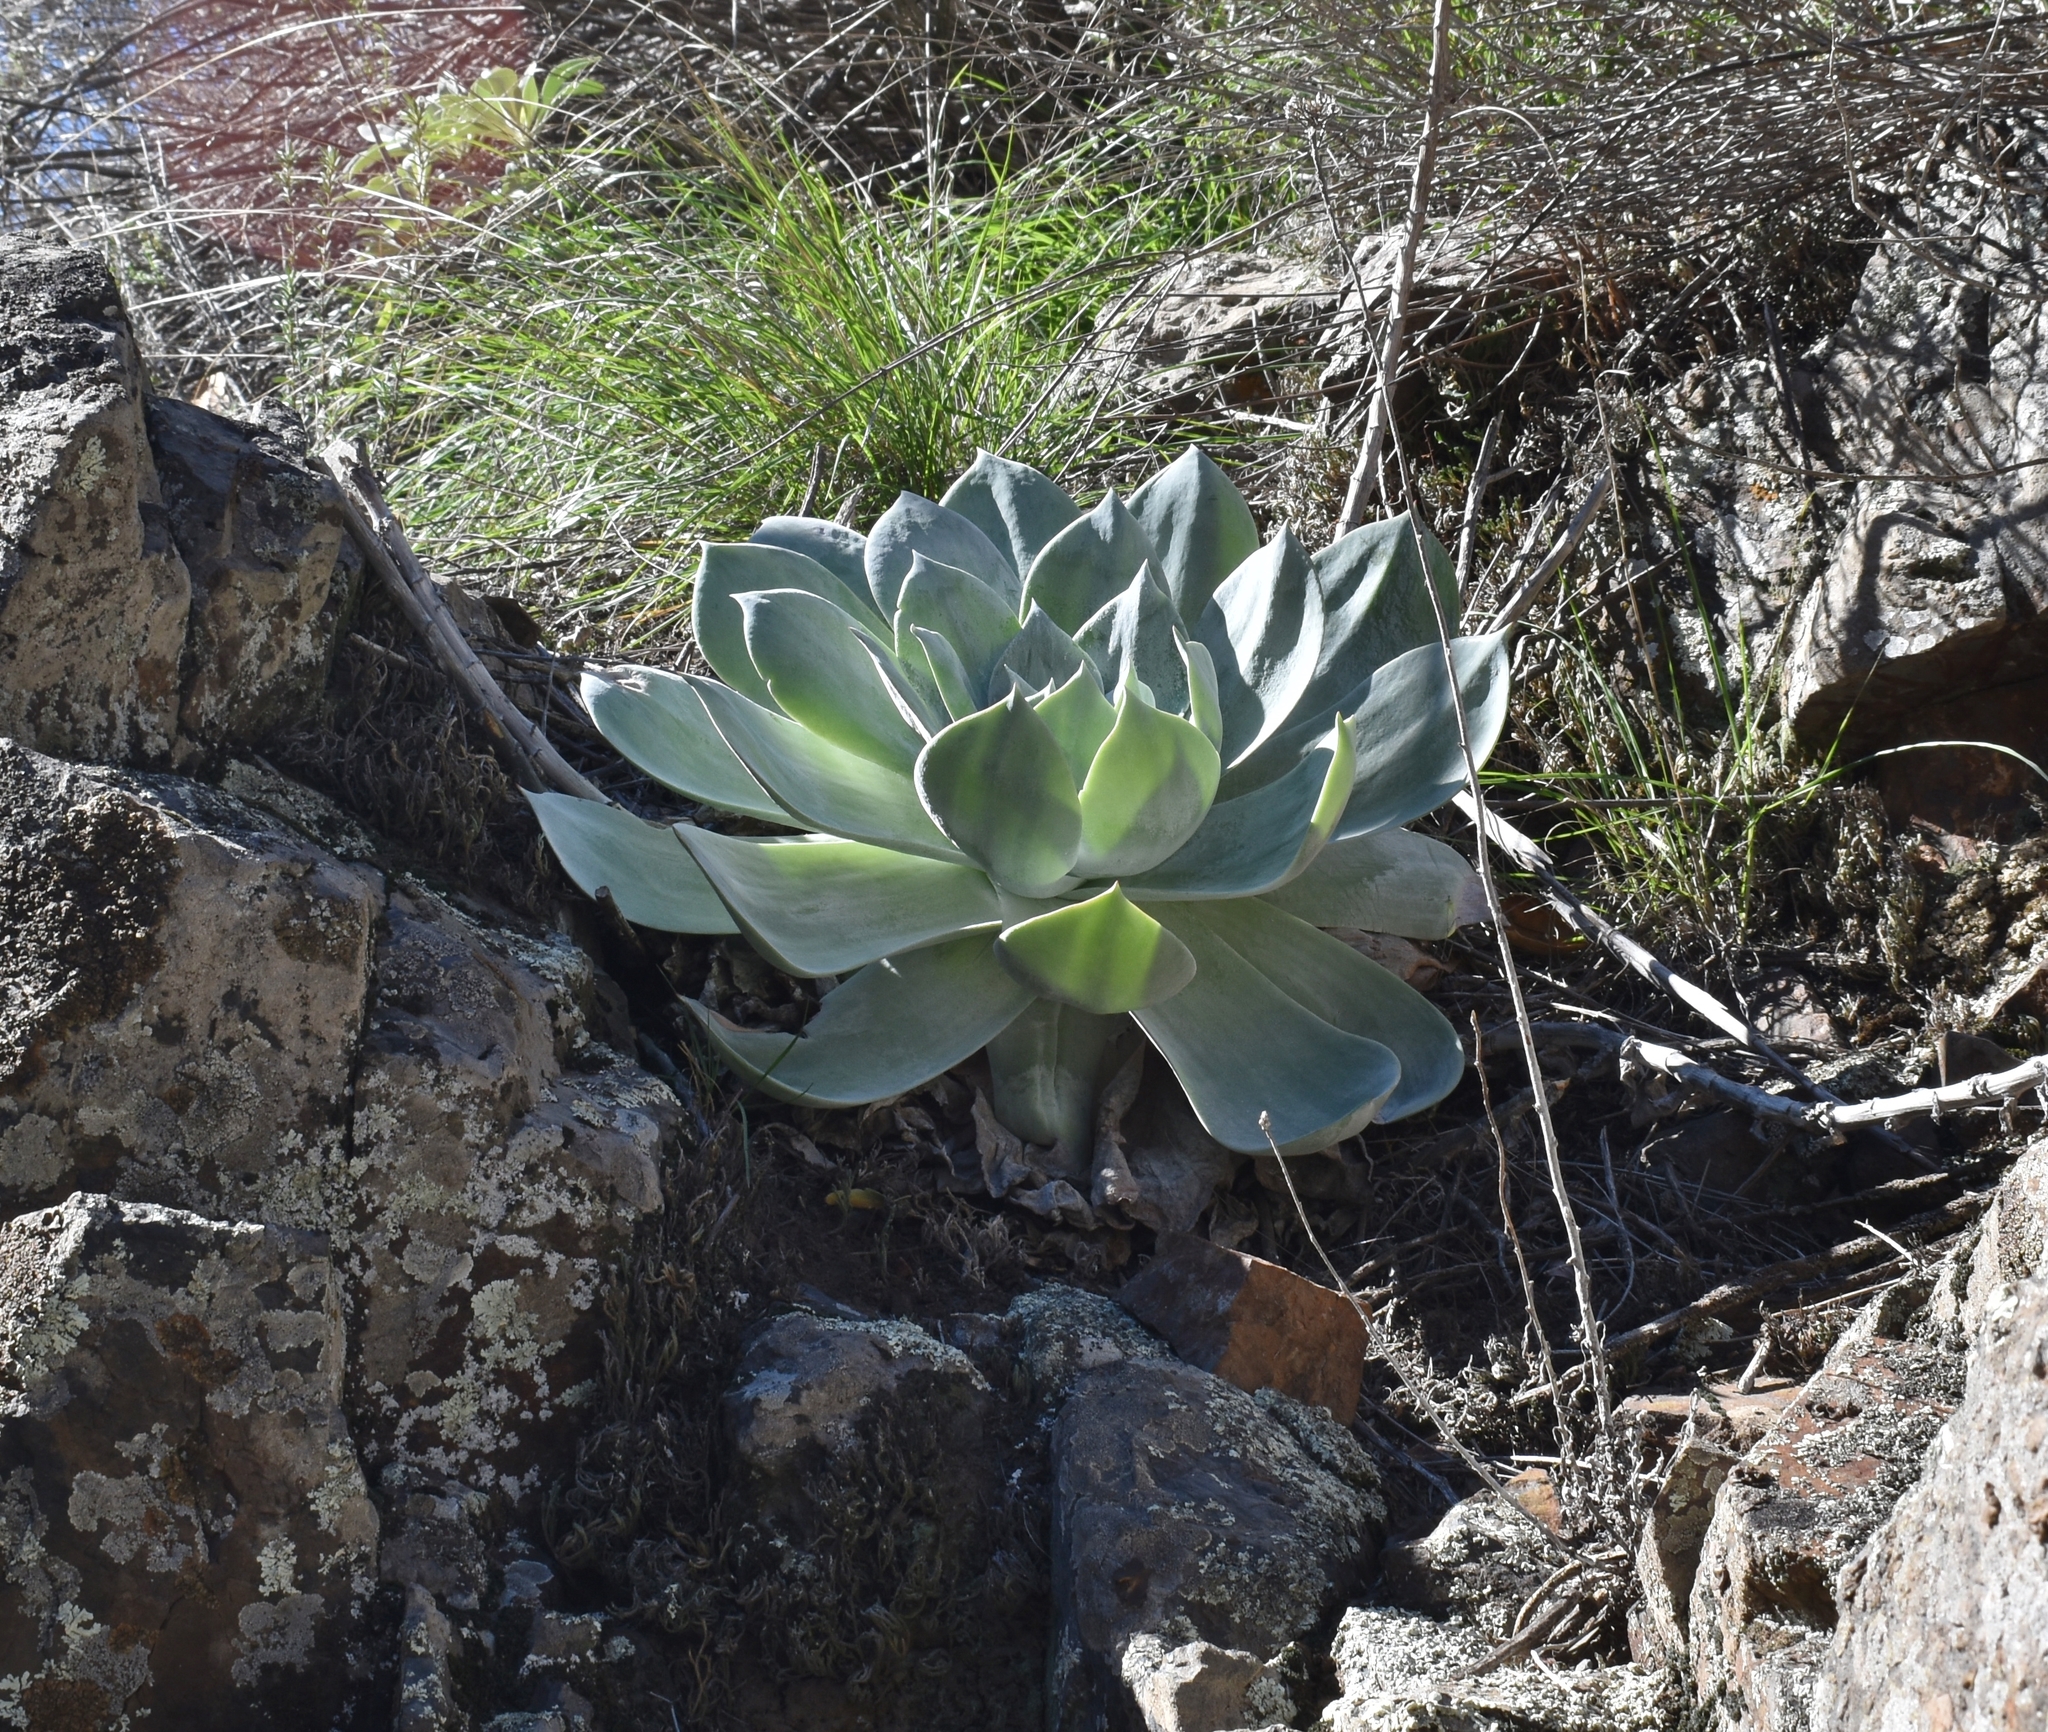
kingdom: Plantae
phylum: Tracheophyta
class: Magnoliopsida
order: Saxifragales
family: Crassulaceae
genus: Dudleya
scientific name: Dudleya pulverulenta
